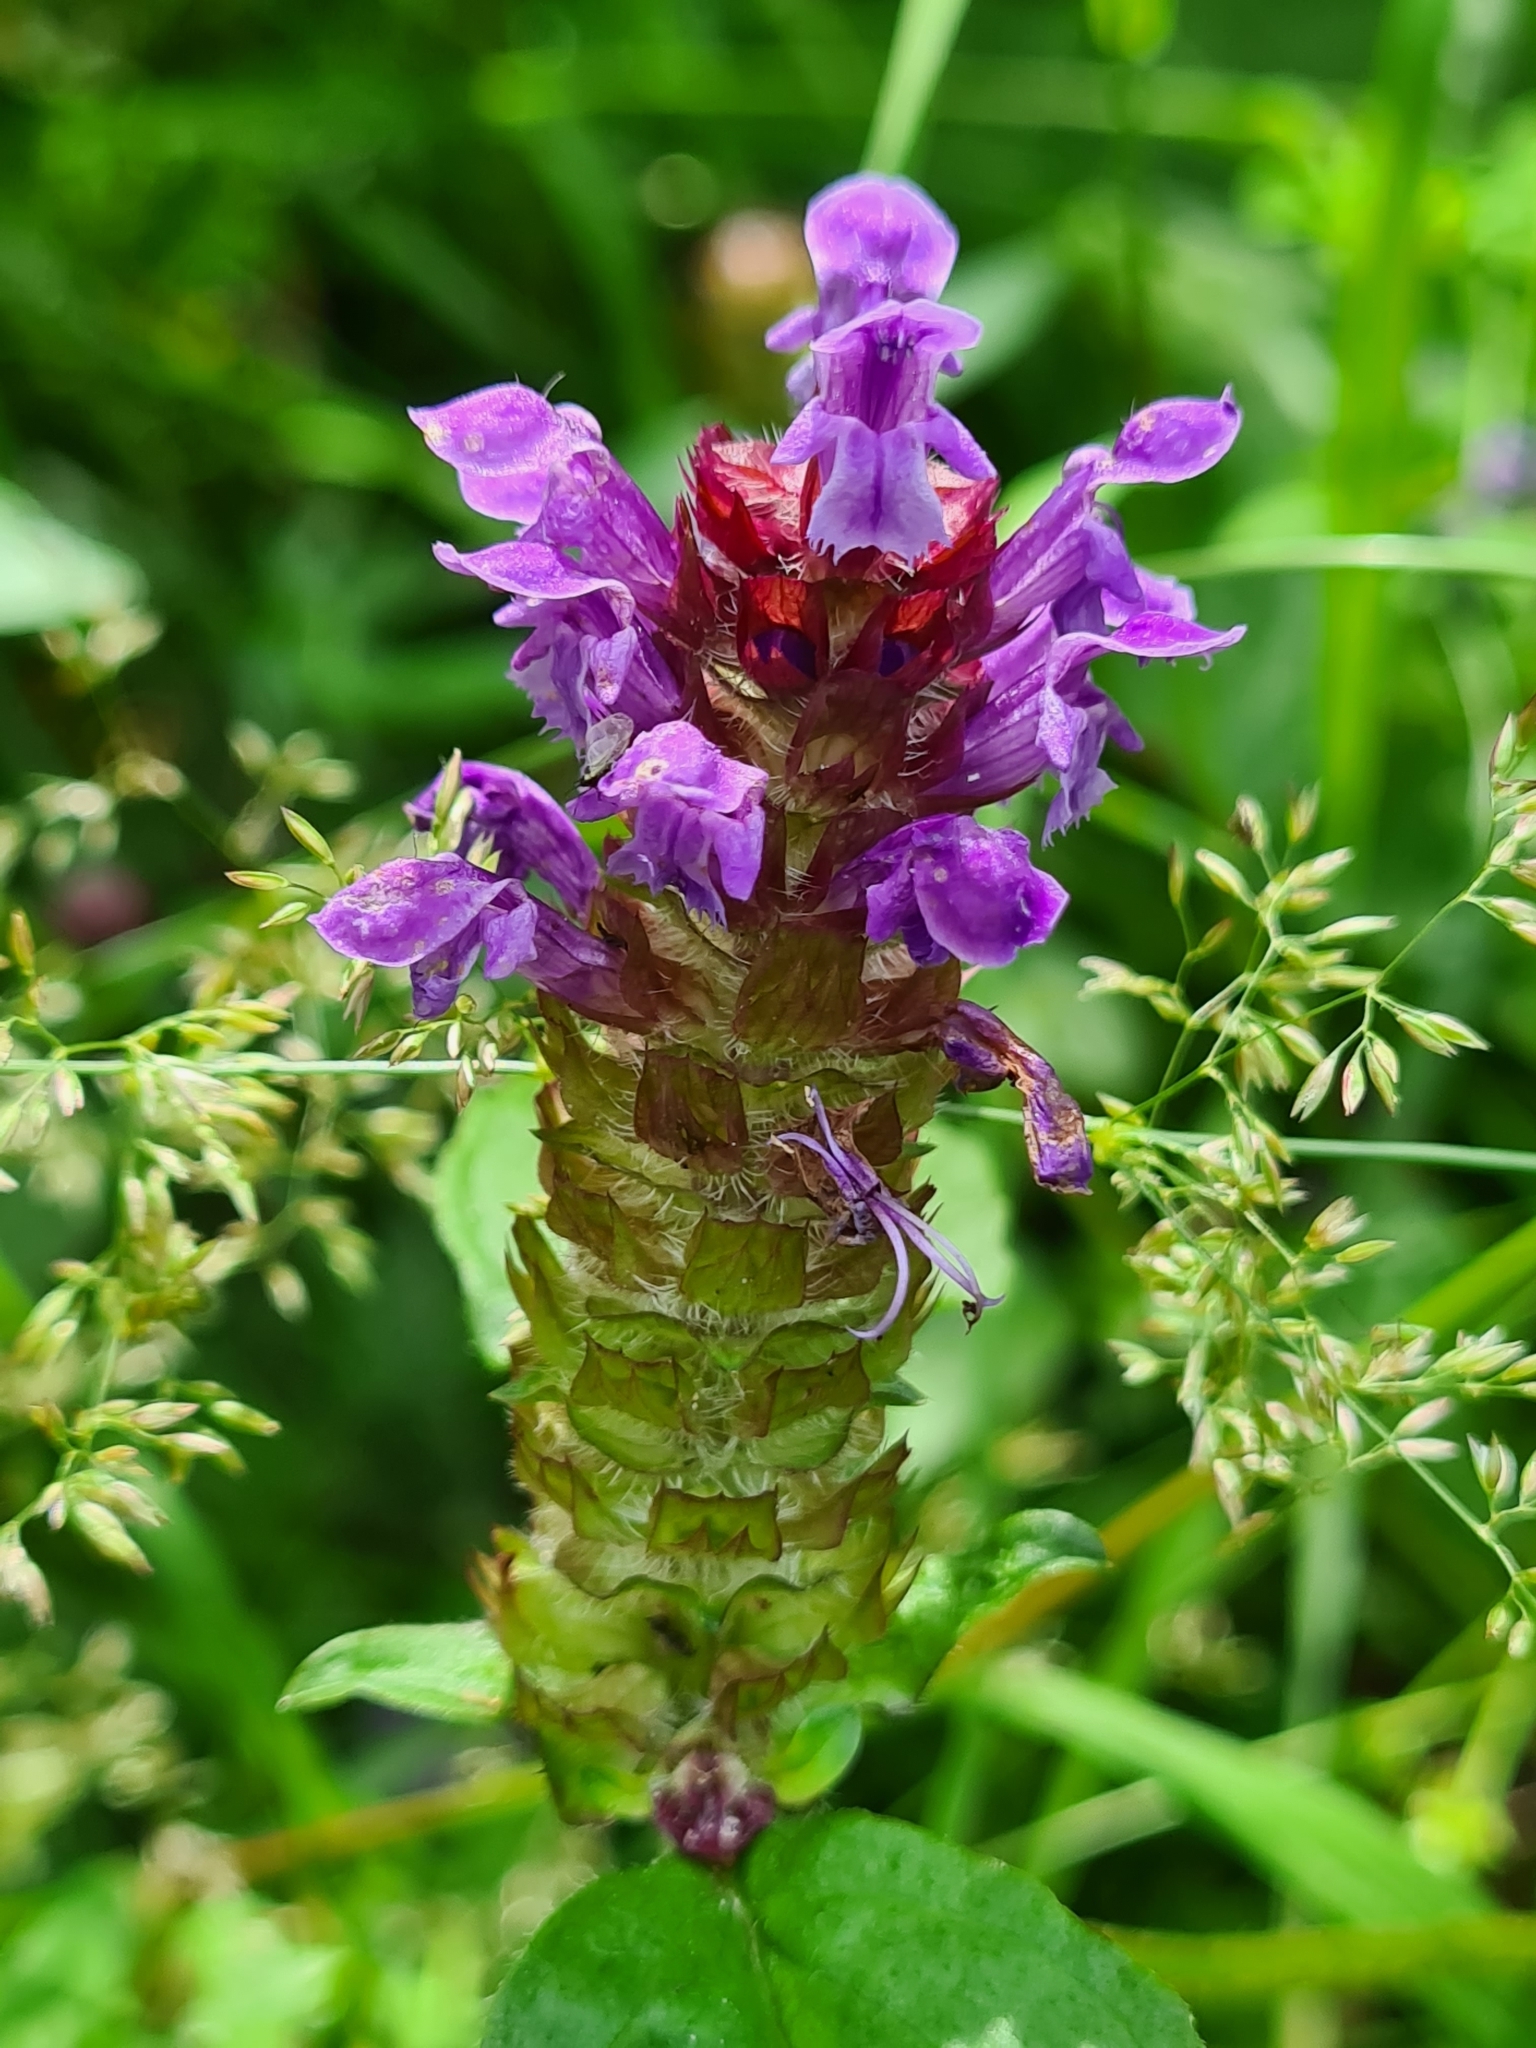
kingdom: Plantae
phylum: Tracheophyta
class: Magnoliopsida
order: Lamiales
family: Lamiaceae
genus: Prunella
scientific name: Prunella vulgaris
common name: Heal-all
